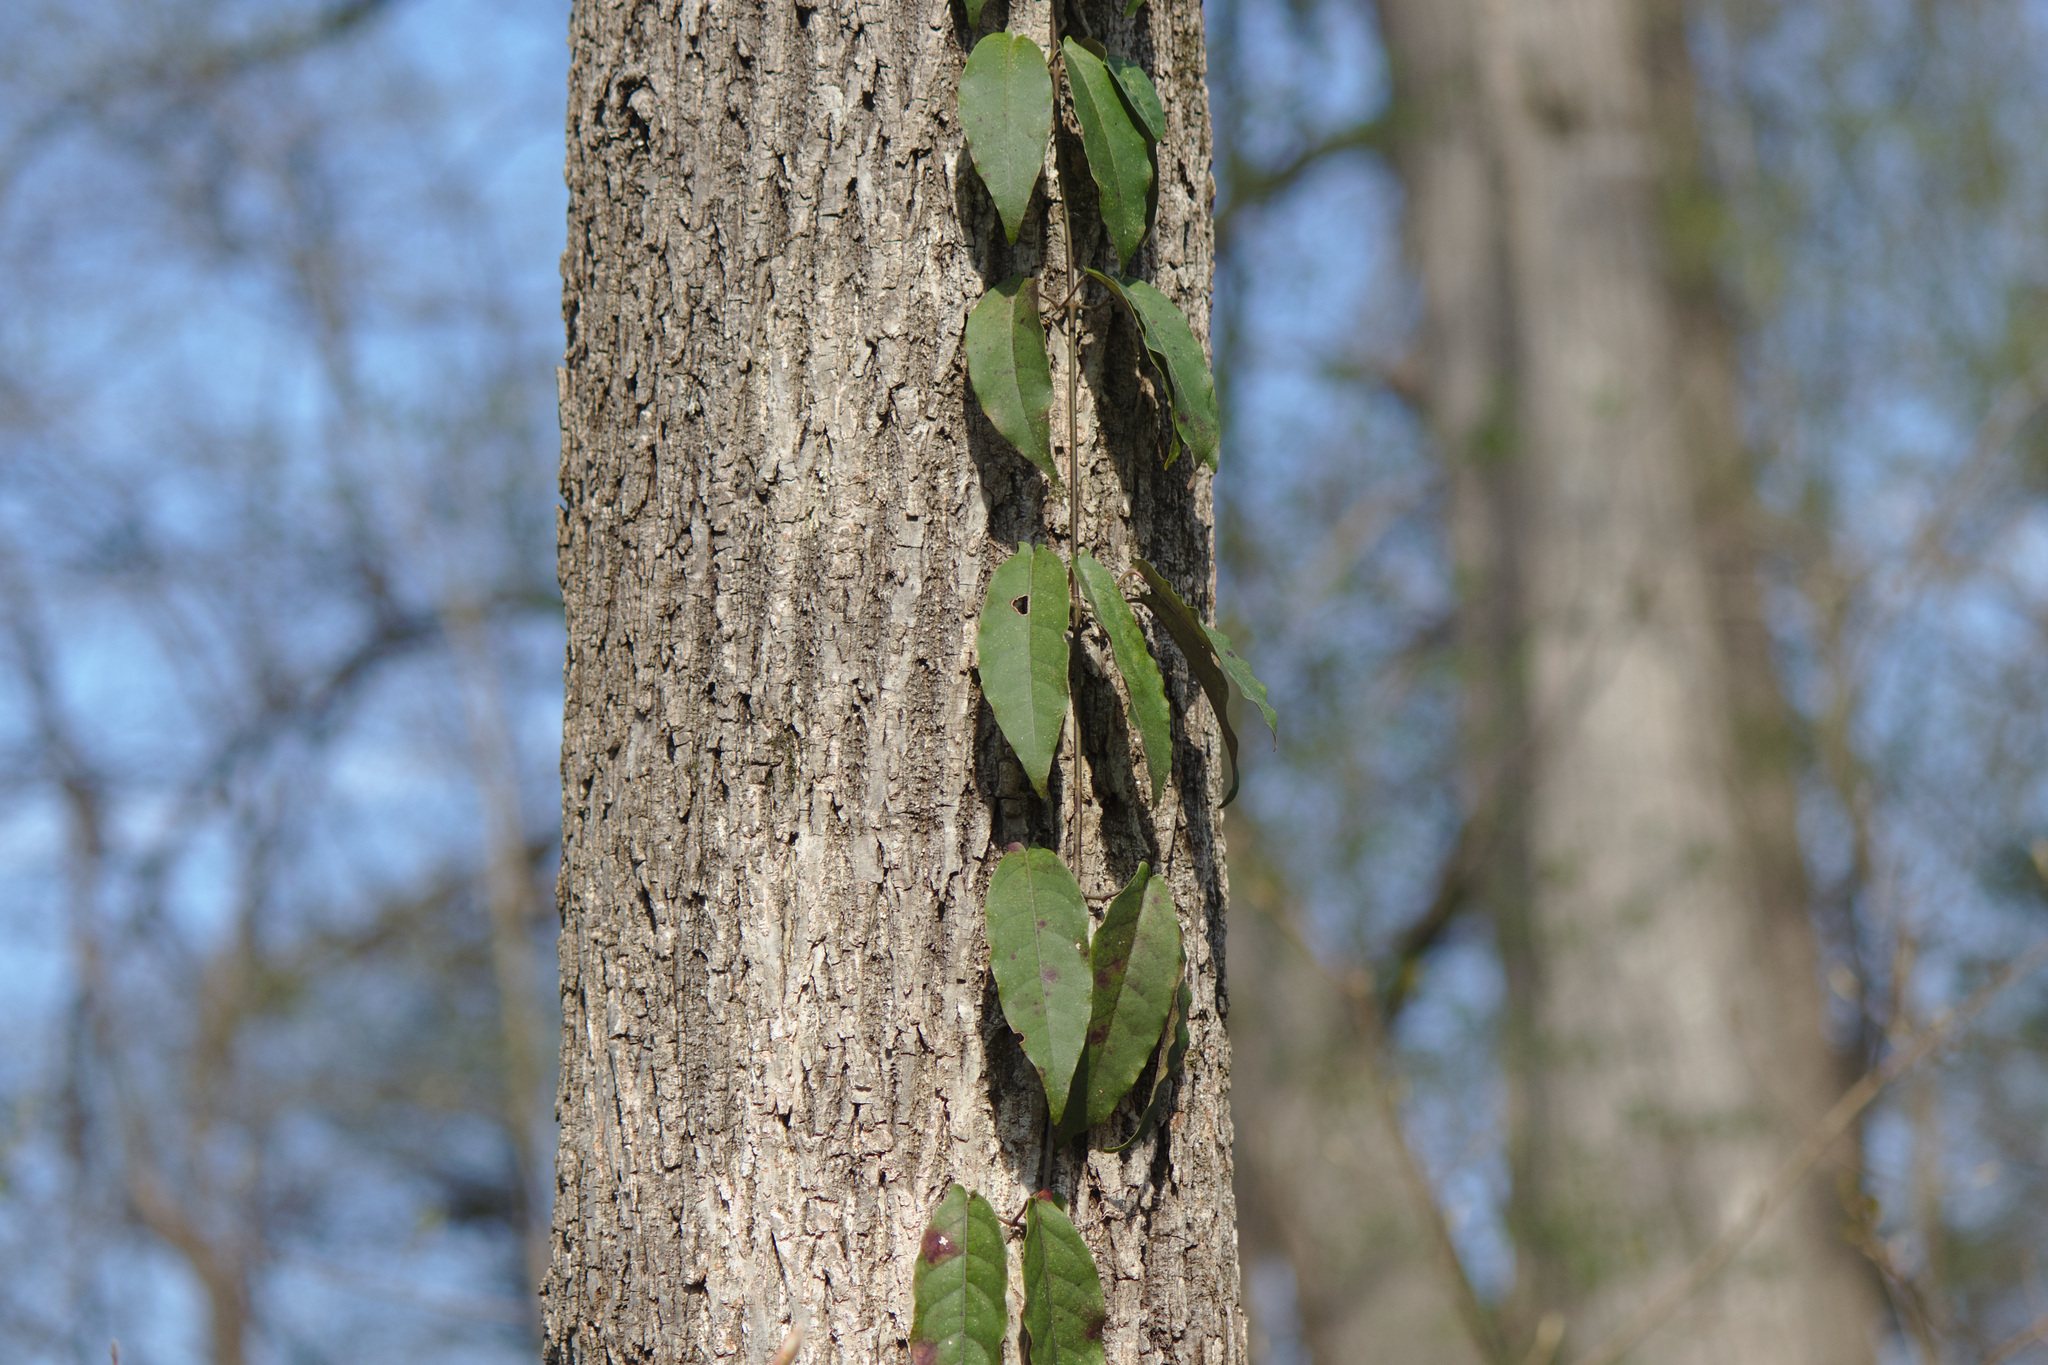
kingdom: Plantae
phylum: Tracheophyta
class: Magnoliopsida
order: Lamiales
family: Bignoniaceae
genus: Bignonia
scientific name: Bignonia capreolata
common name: Crossvine
